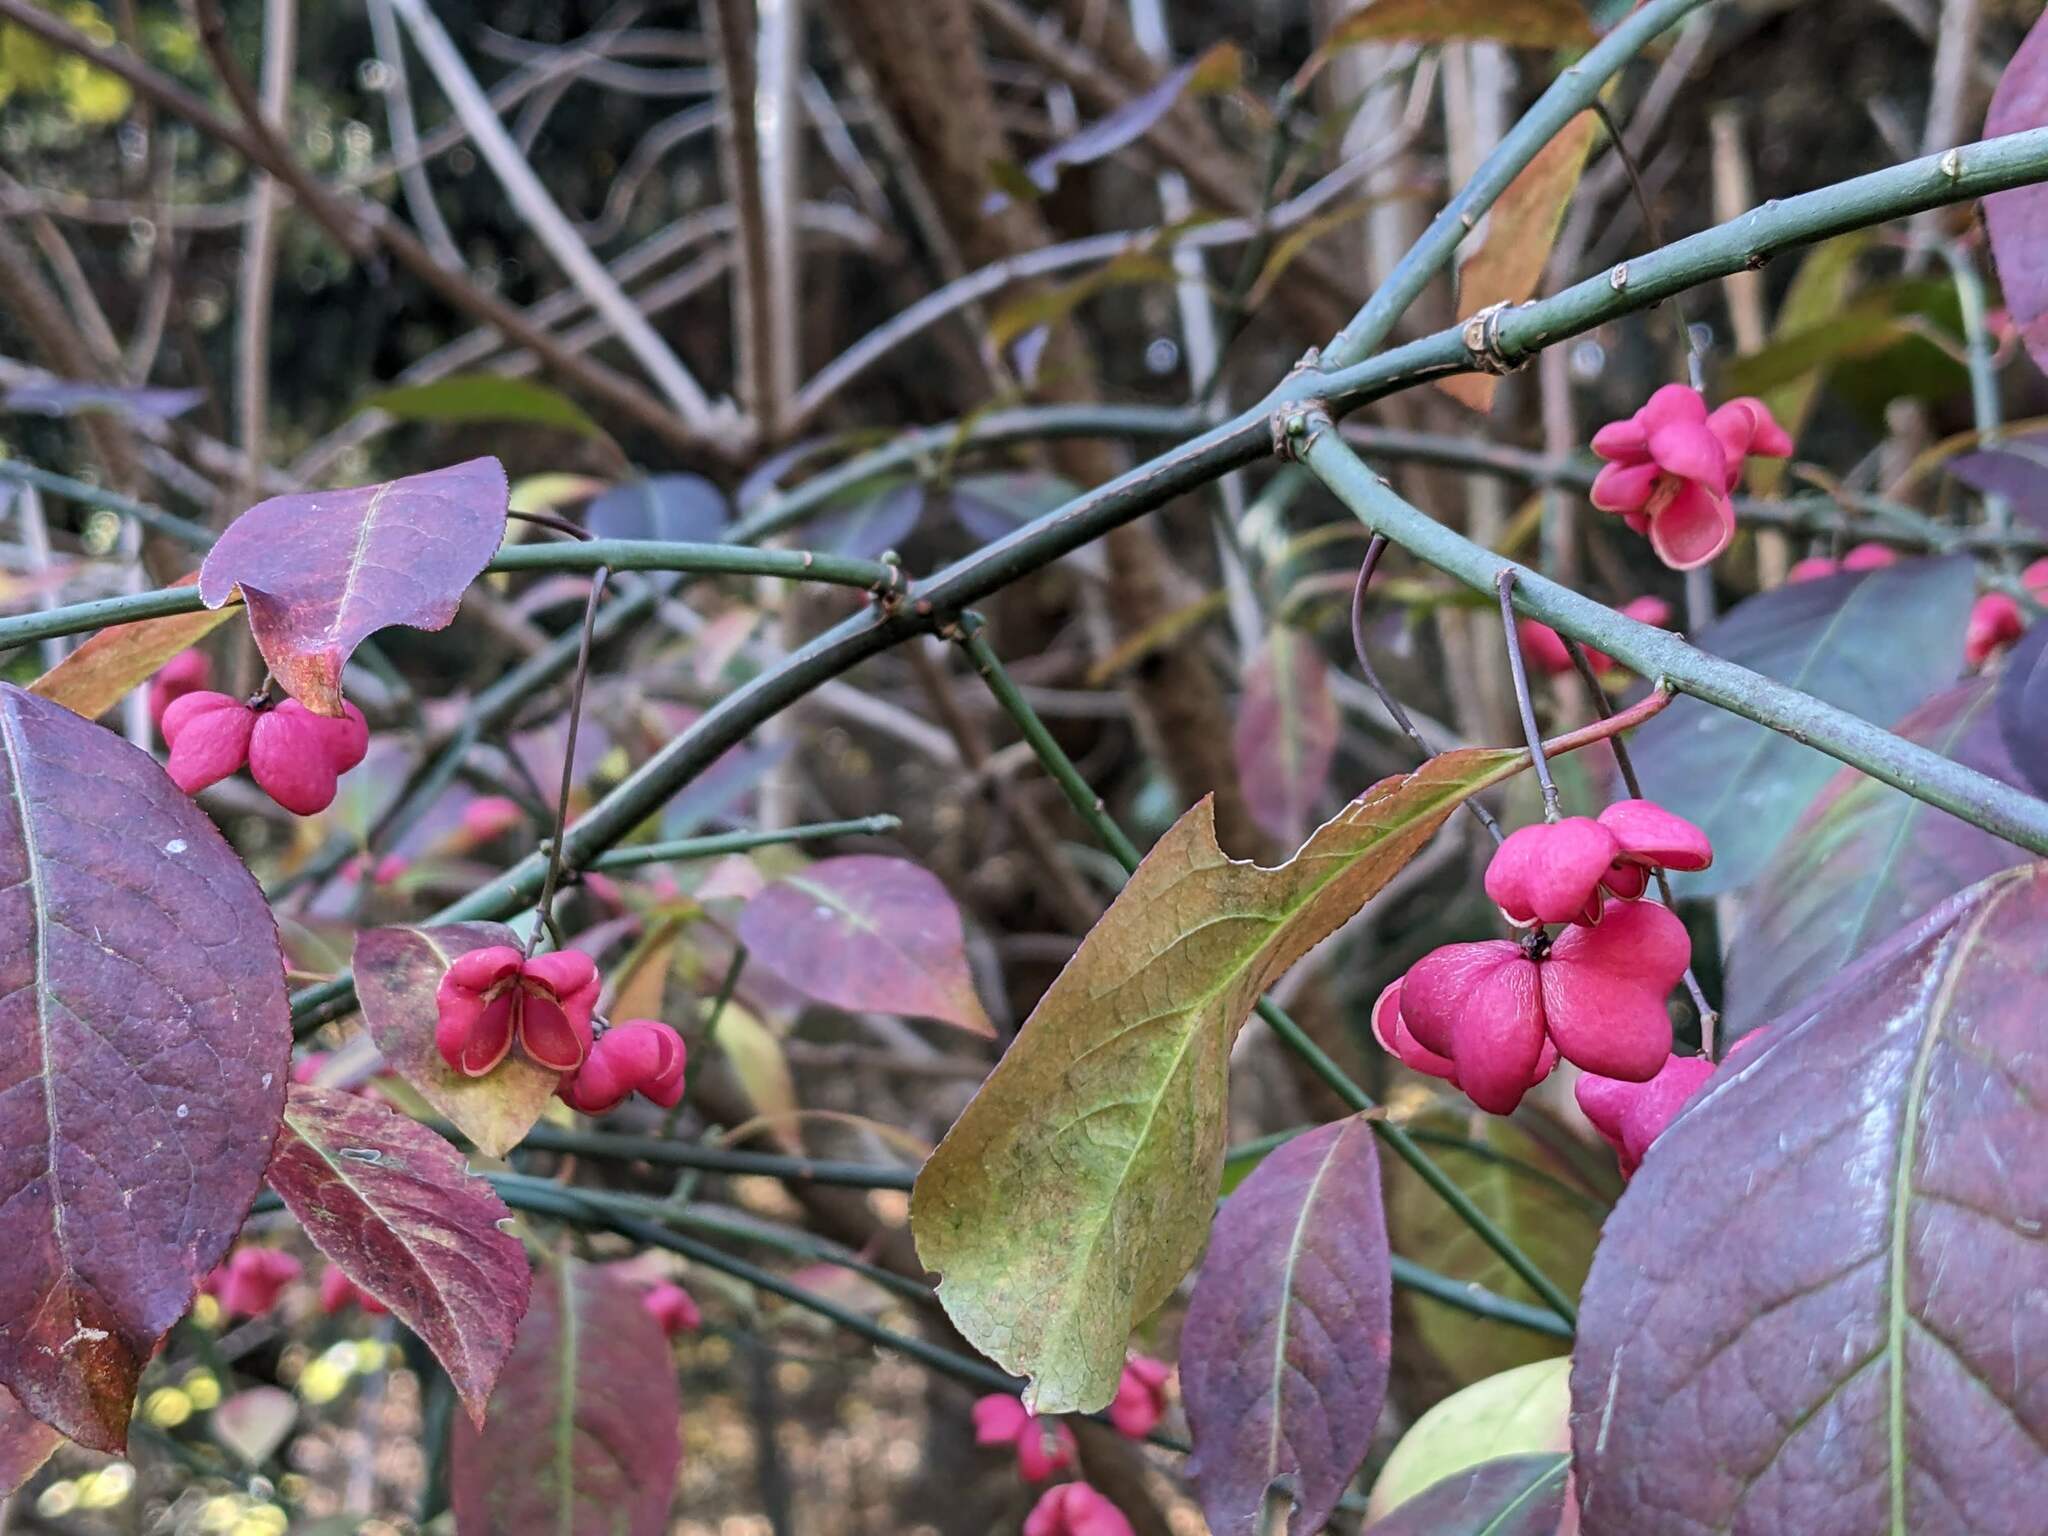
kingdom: Plantae
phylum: Tracheophyta
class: Magnoliopsida
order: Celastrales
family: Celastraceae
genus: Euonymus
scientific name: Euonymus europaeus
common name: Spindle
